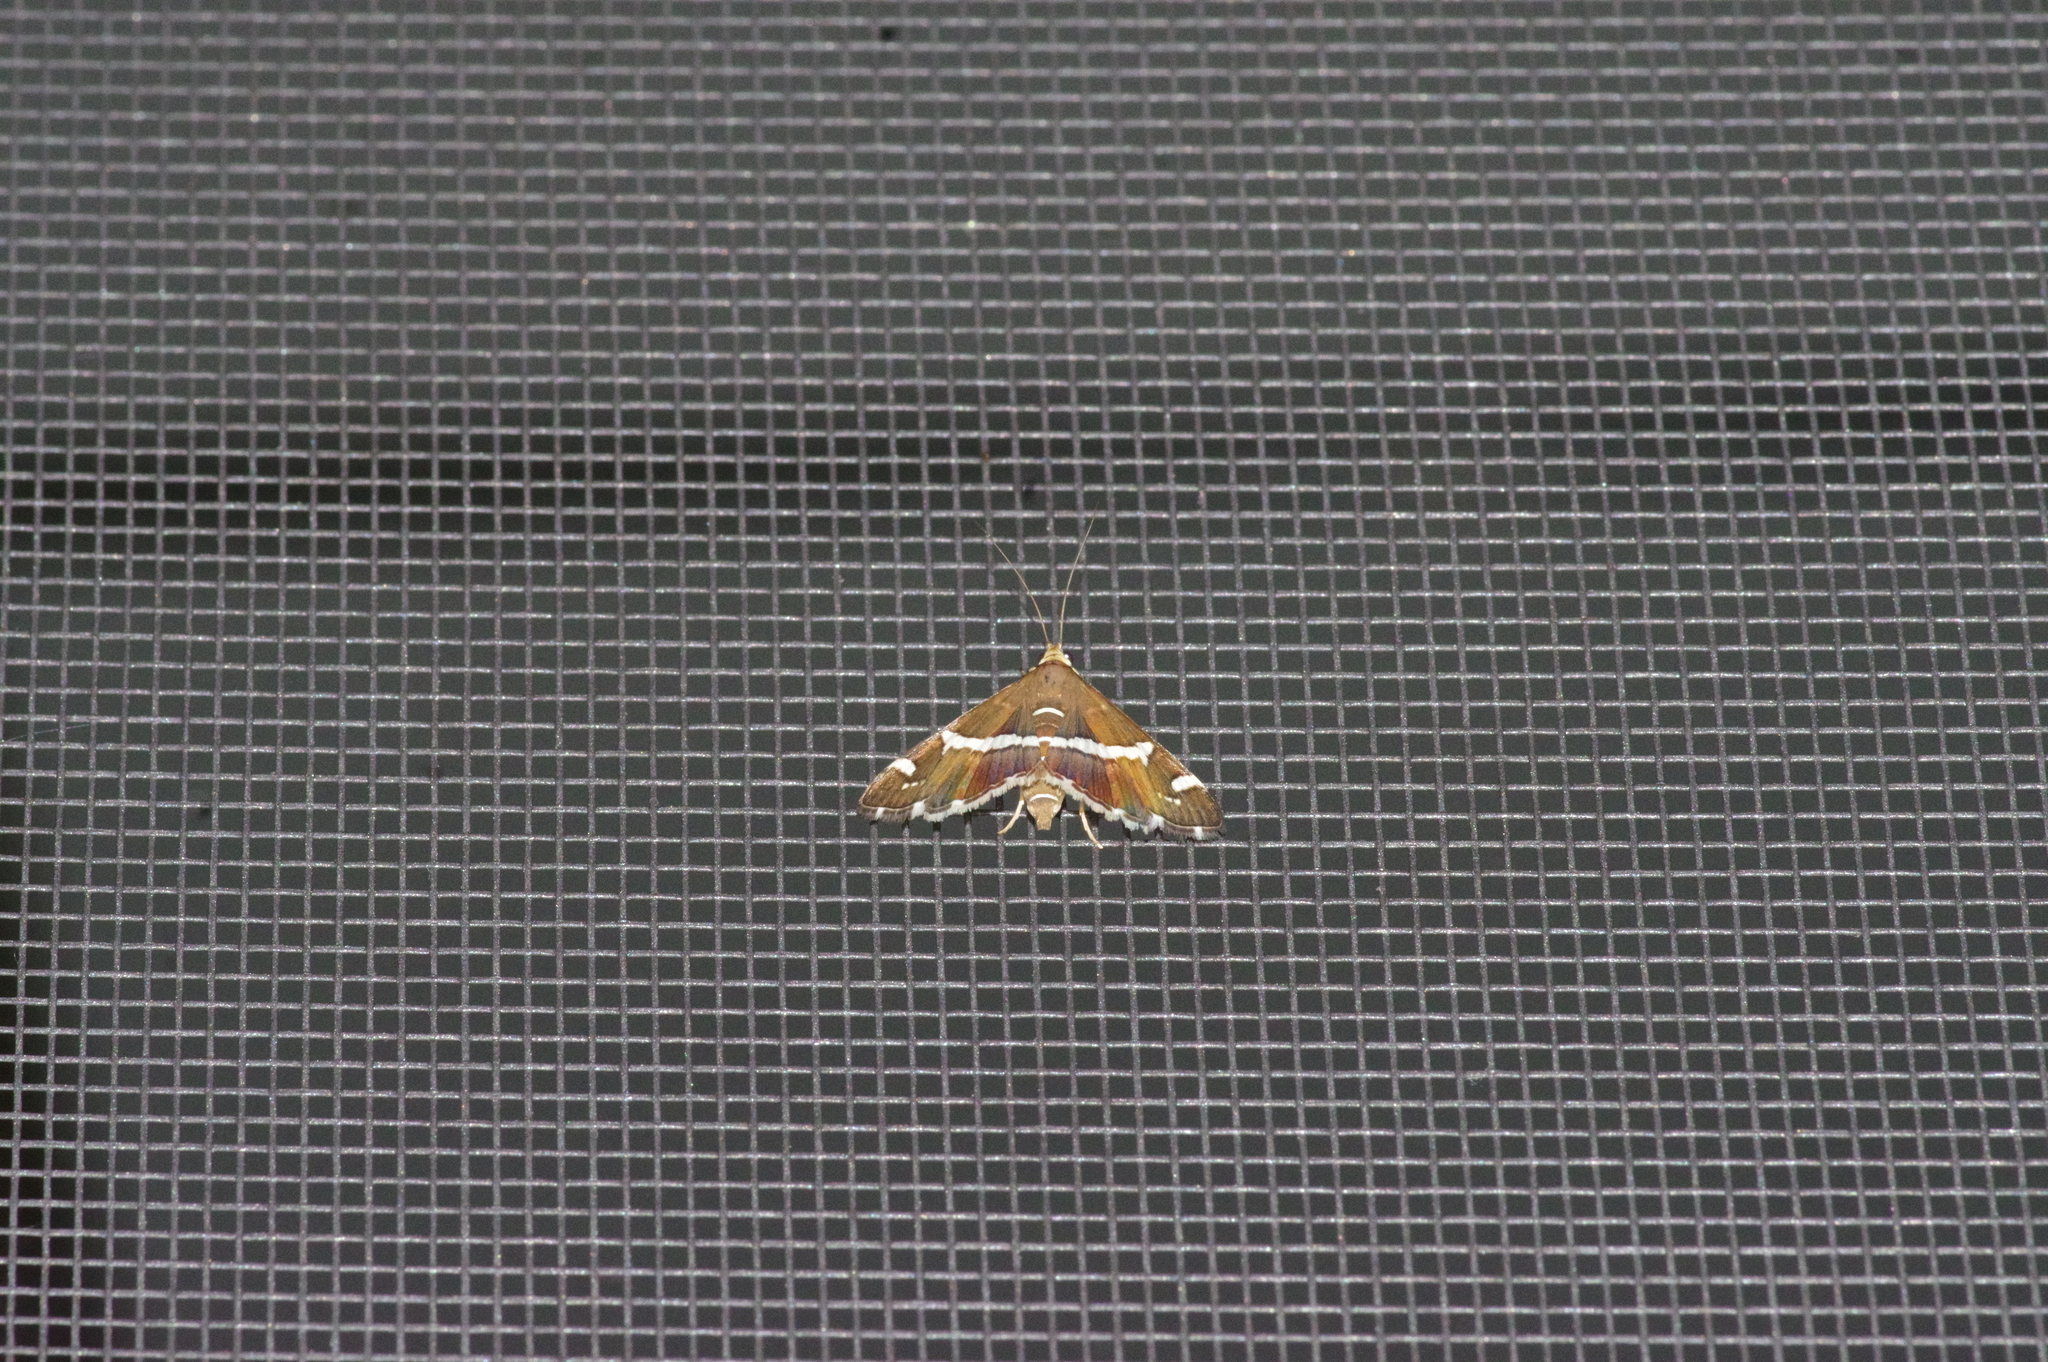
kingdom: Animalia
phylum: Arthropoda
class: Insecta
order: Lepidoptera
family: Crambidae
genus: Spoladea
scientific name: Spoladea recurvalis
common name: Beet webworm moth
